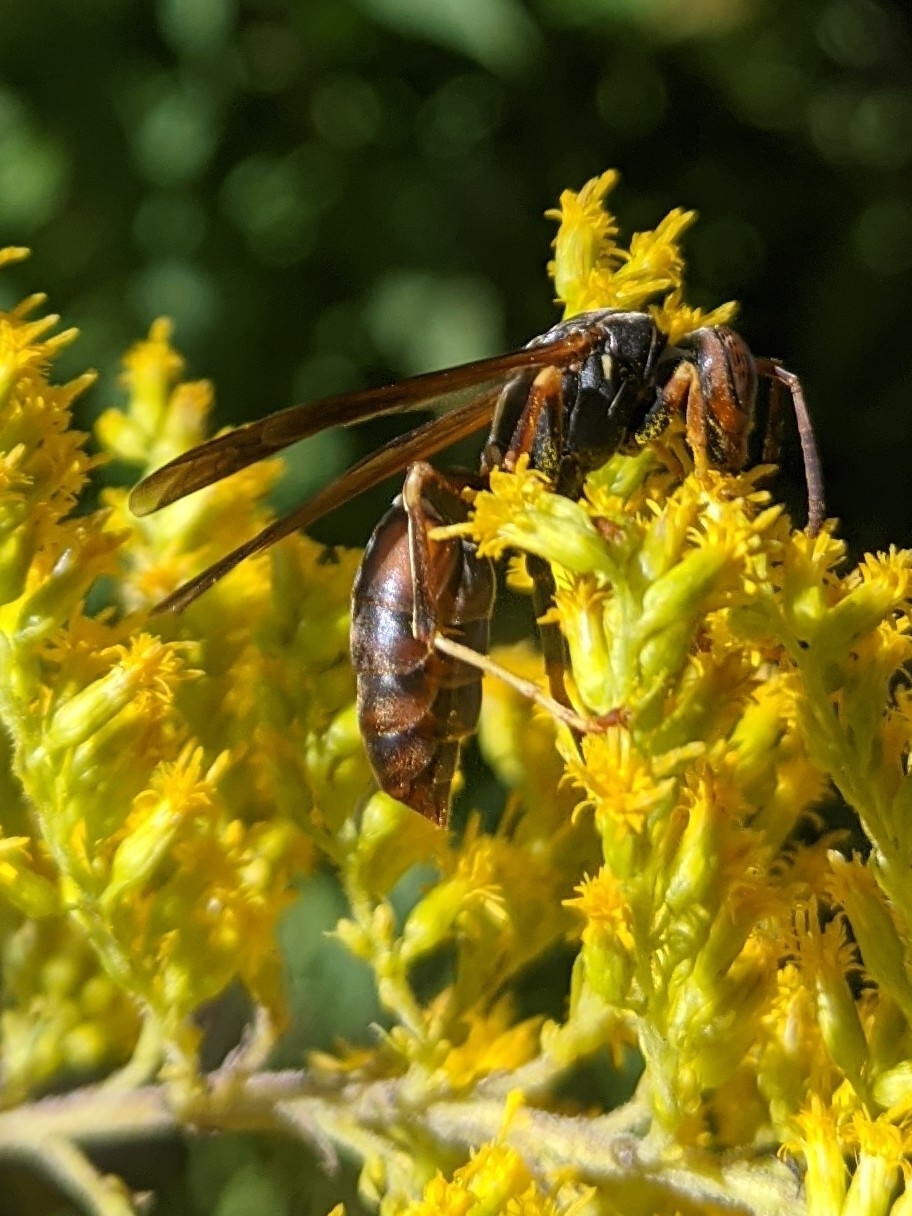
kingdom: Animalia
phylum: Arthropoda
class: Insecta
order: Strepsiptera
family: Xenidae
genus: Xenos
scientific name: Xenos pecki
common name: Twisted wing parasite
